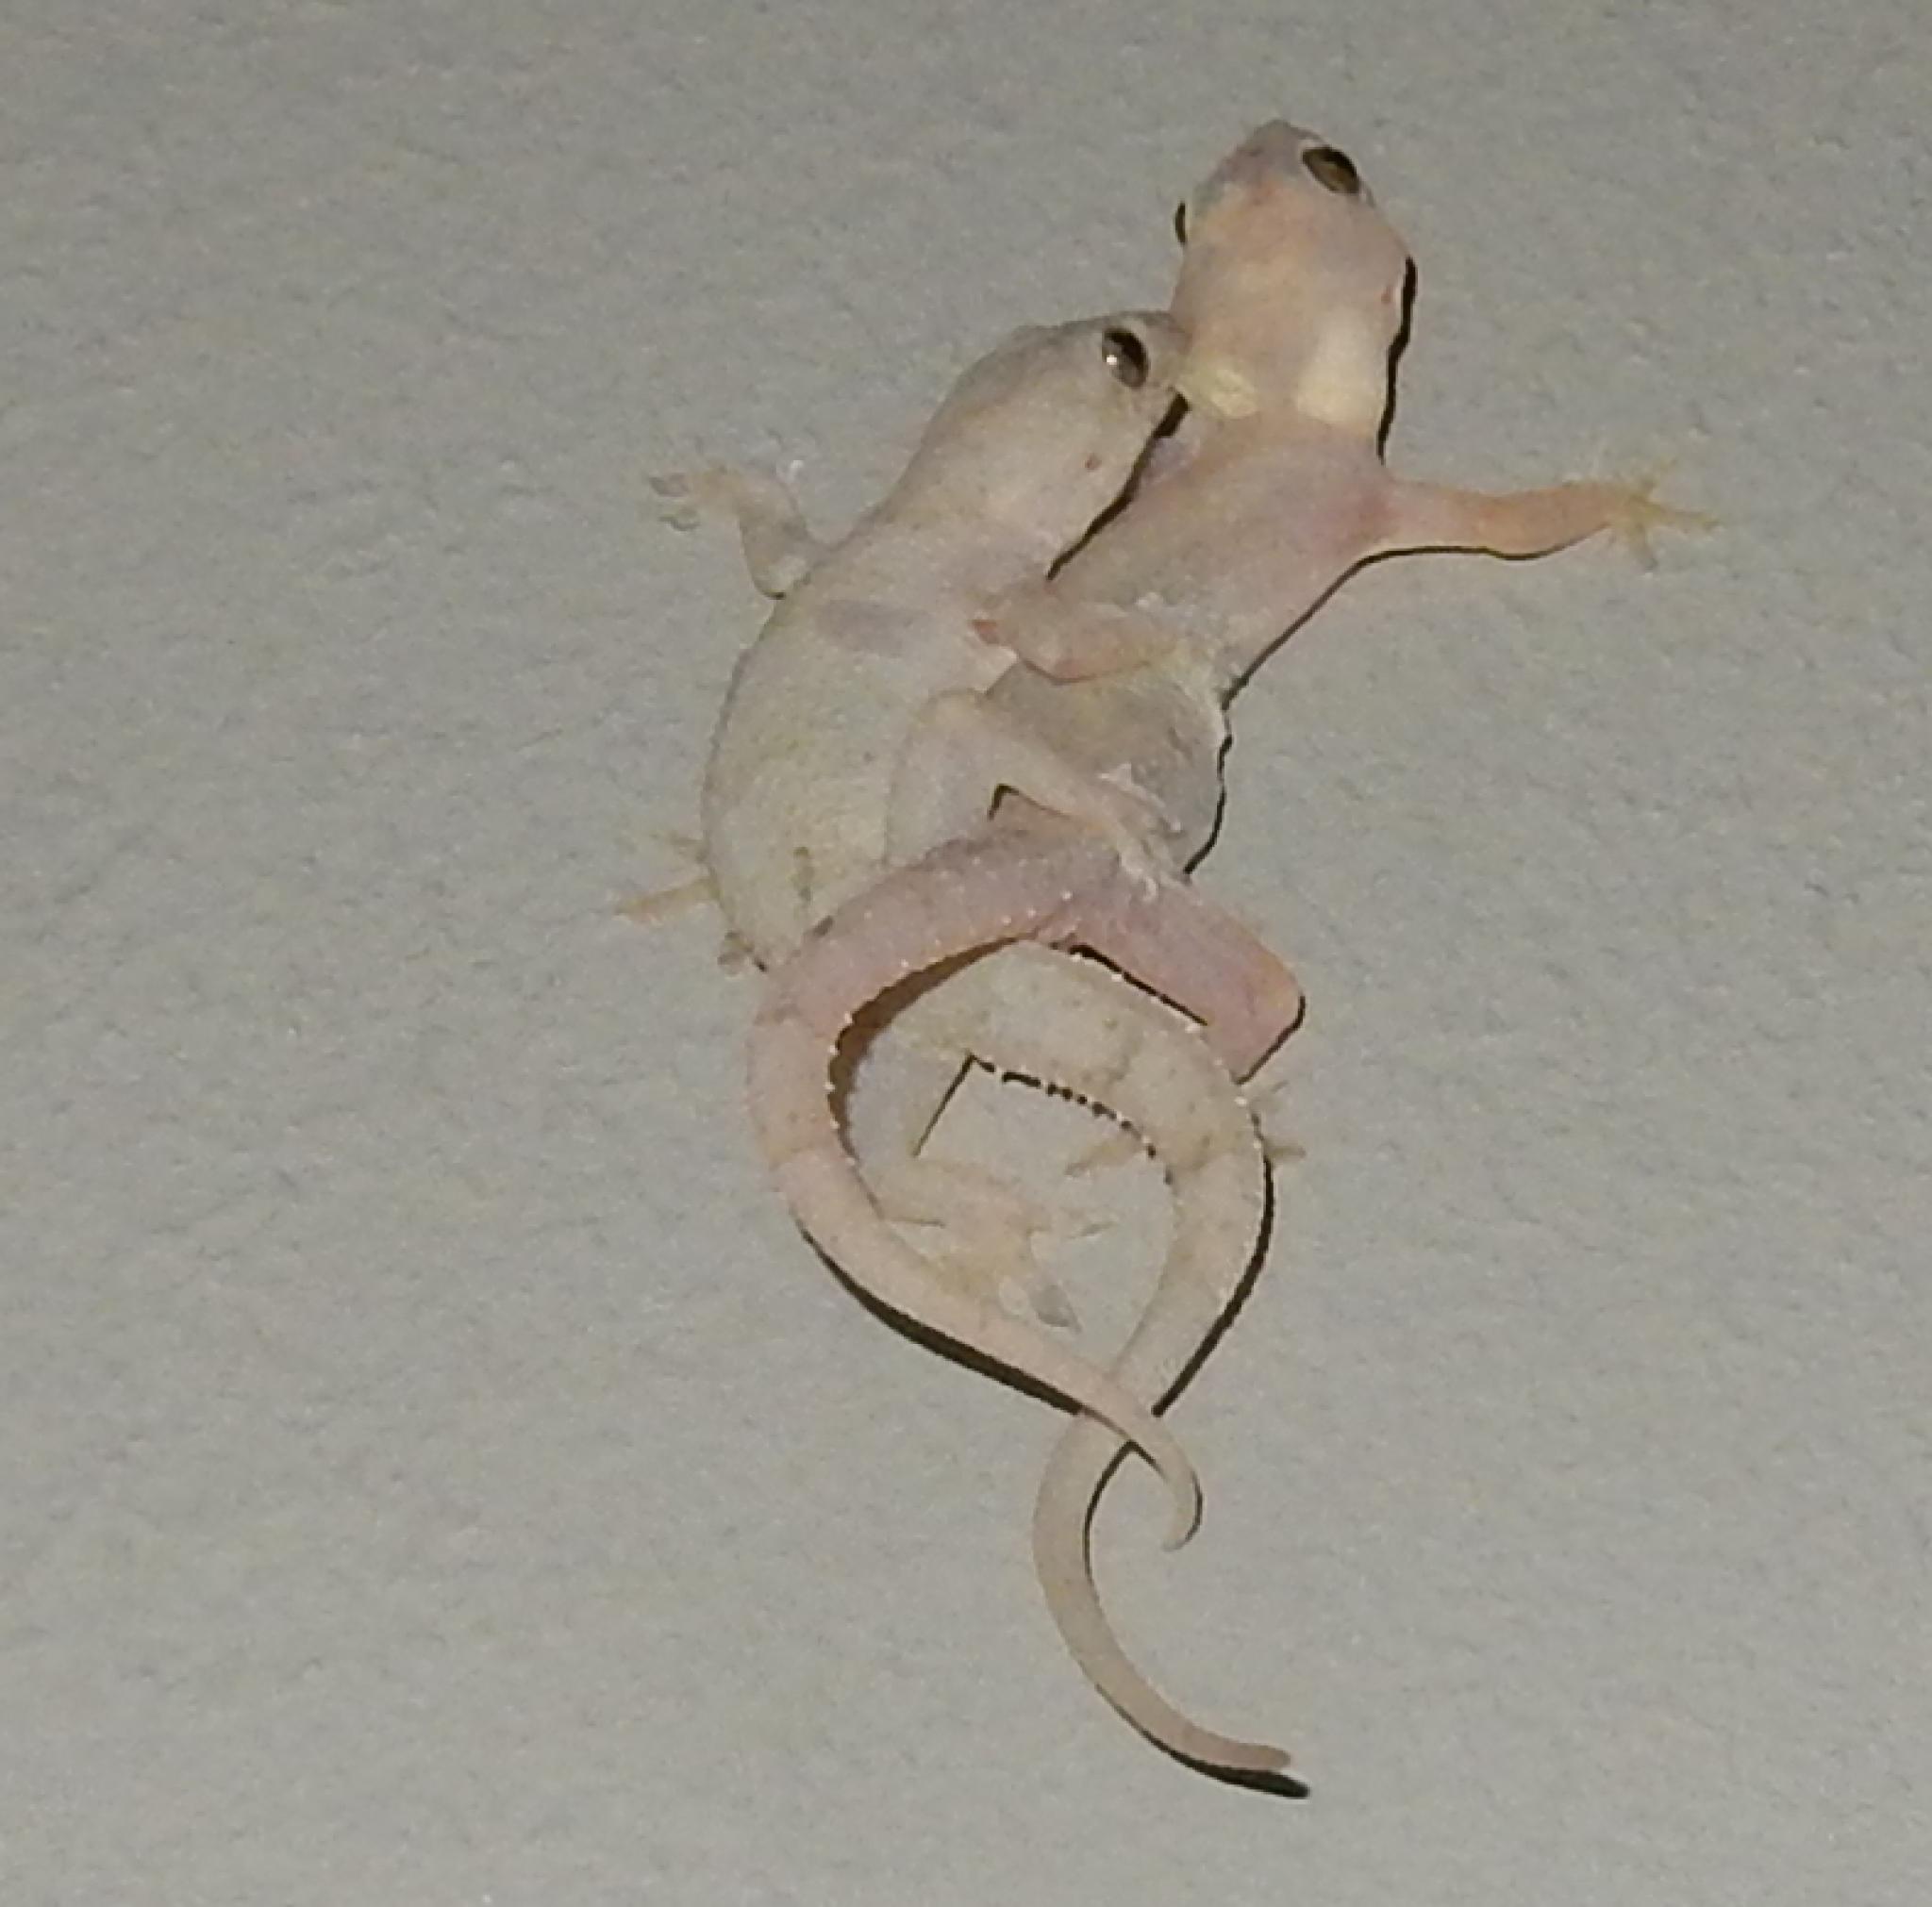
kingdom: Animalia
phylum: Chordata
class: Squamata
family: Gekkonidae
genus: Hemidactylus
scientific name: Hemidactylus mabouia
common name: House gecko
